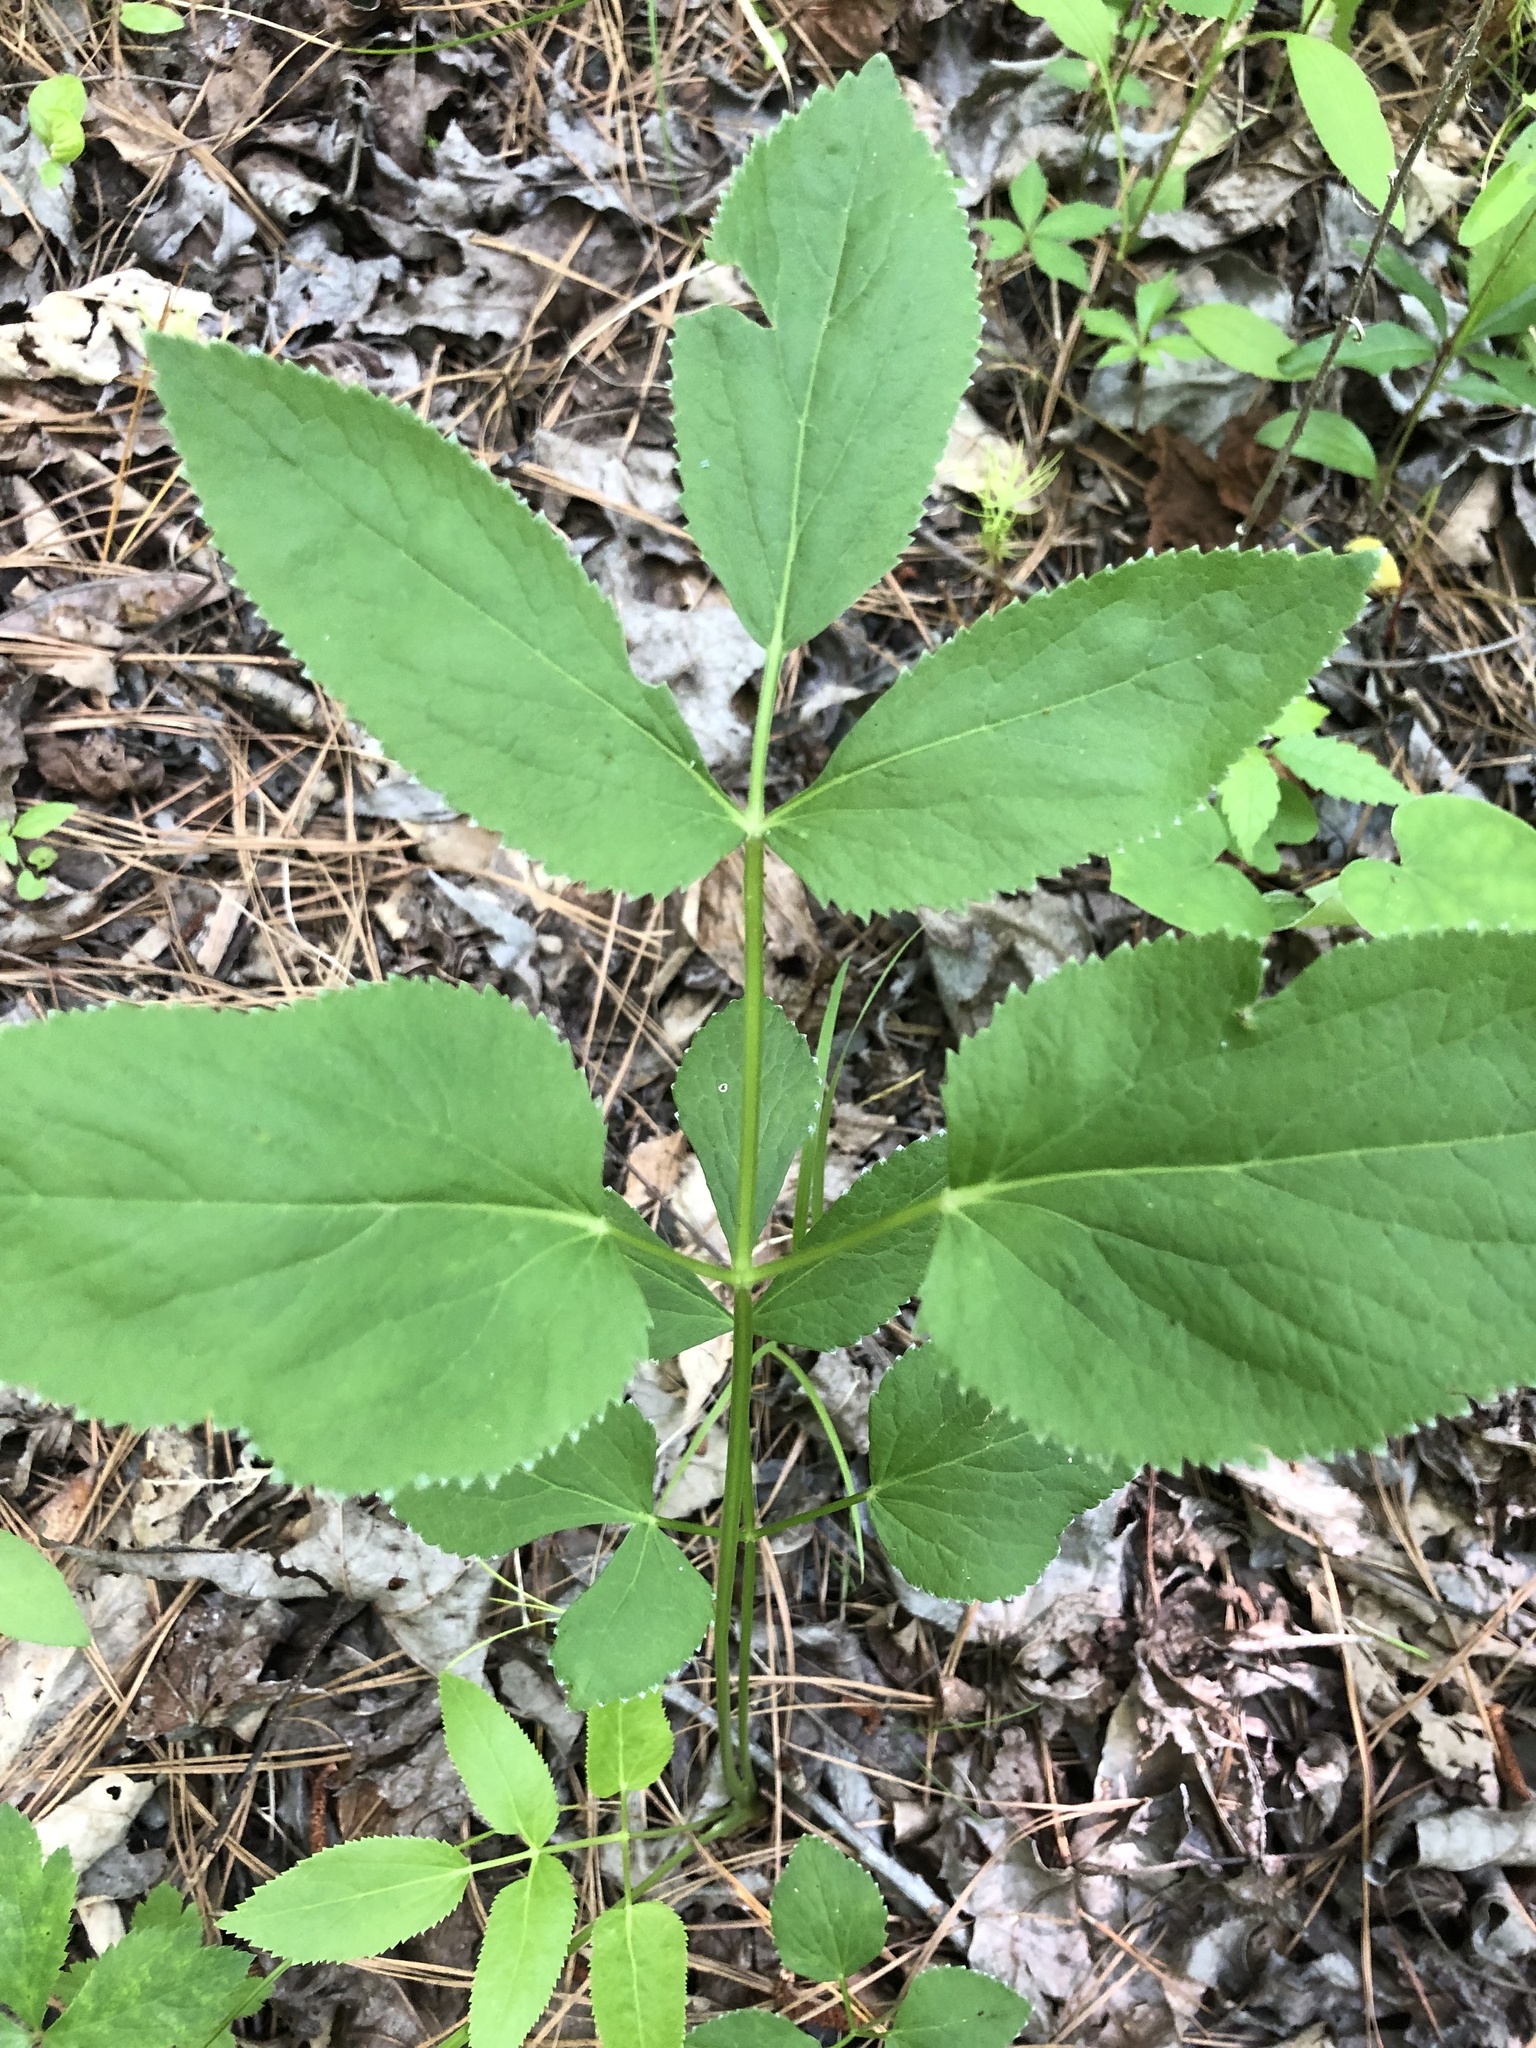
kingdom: Plantae
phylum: Tracheophyta
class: Magnoliopsida
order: Apiales
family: Apiaceae
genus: Zizia
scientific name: Zizia aurea
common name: Golden alexanders
